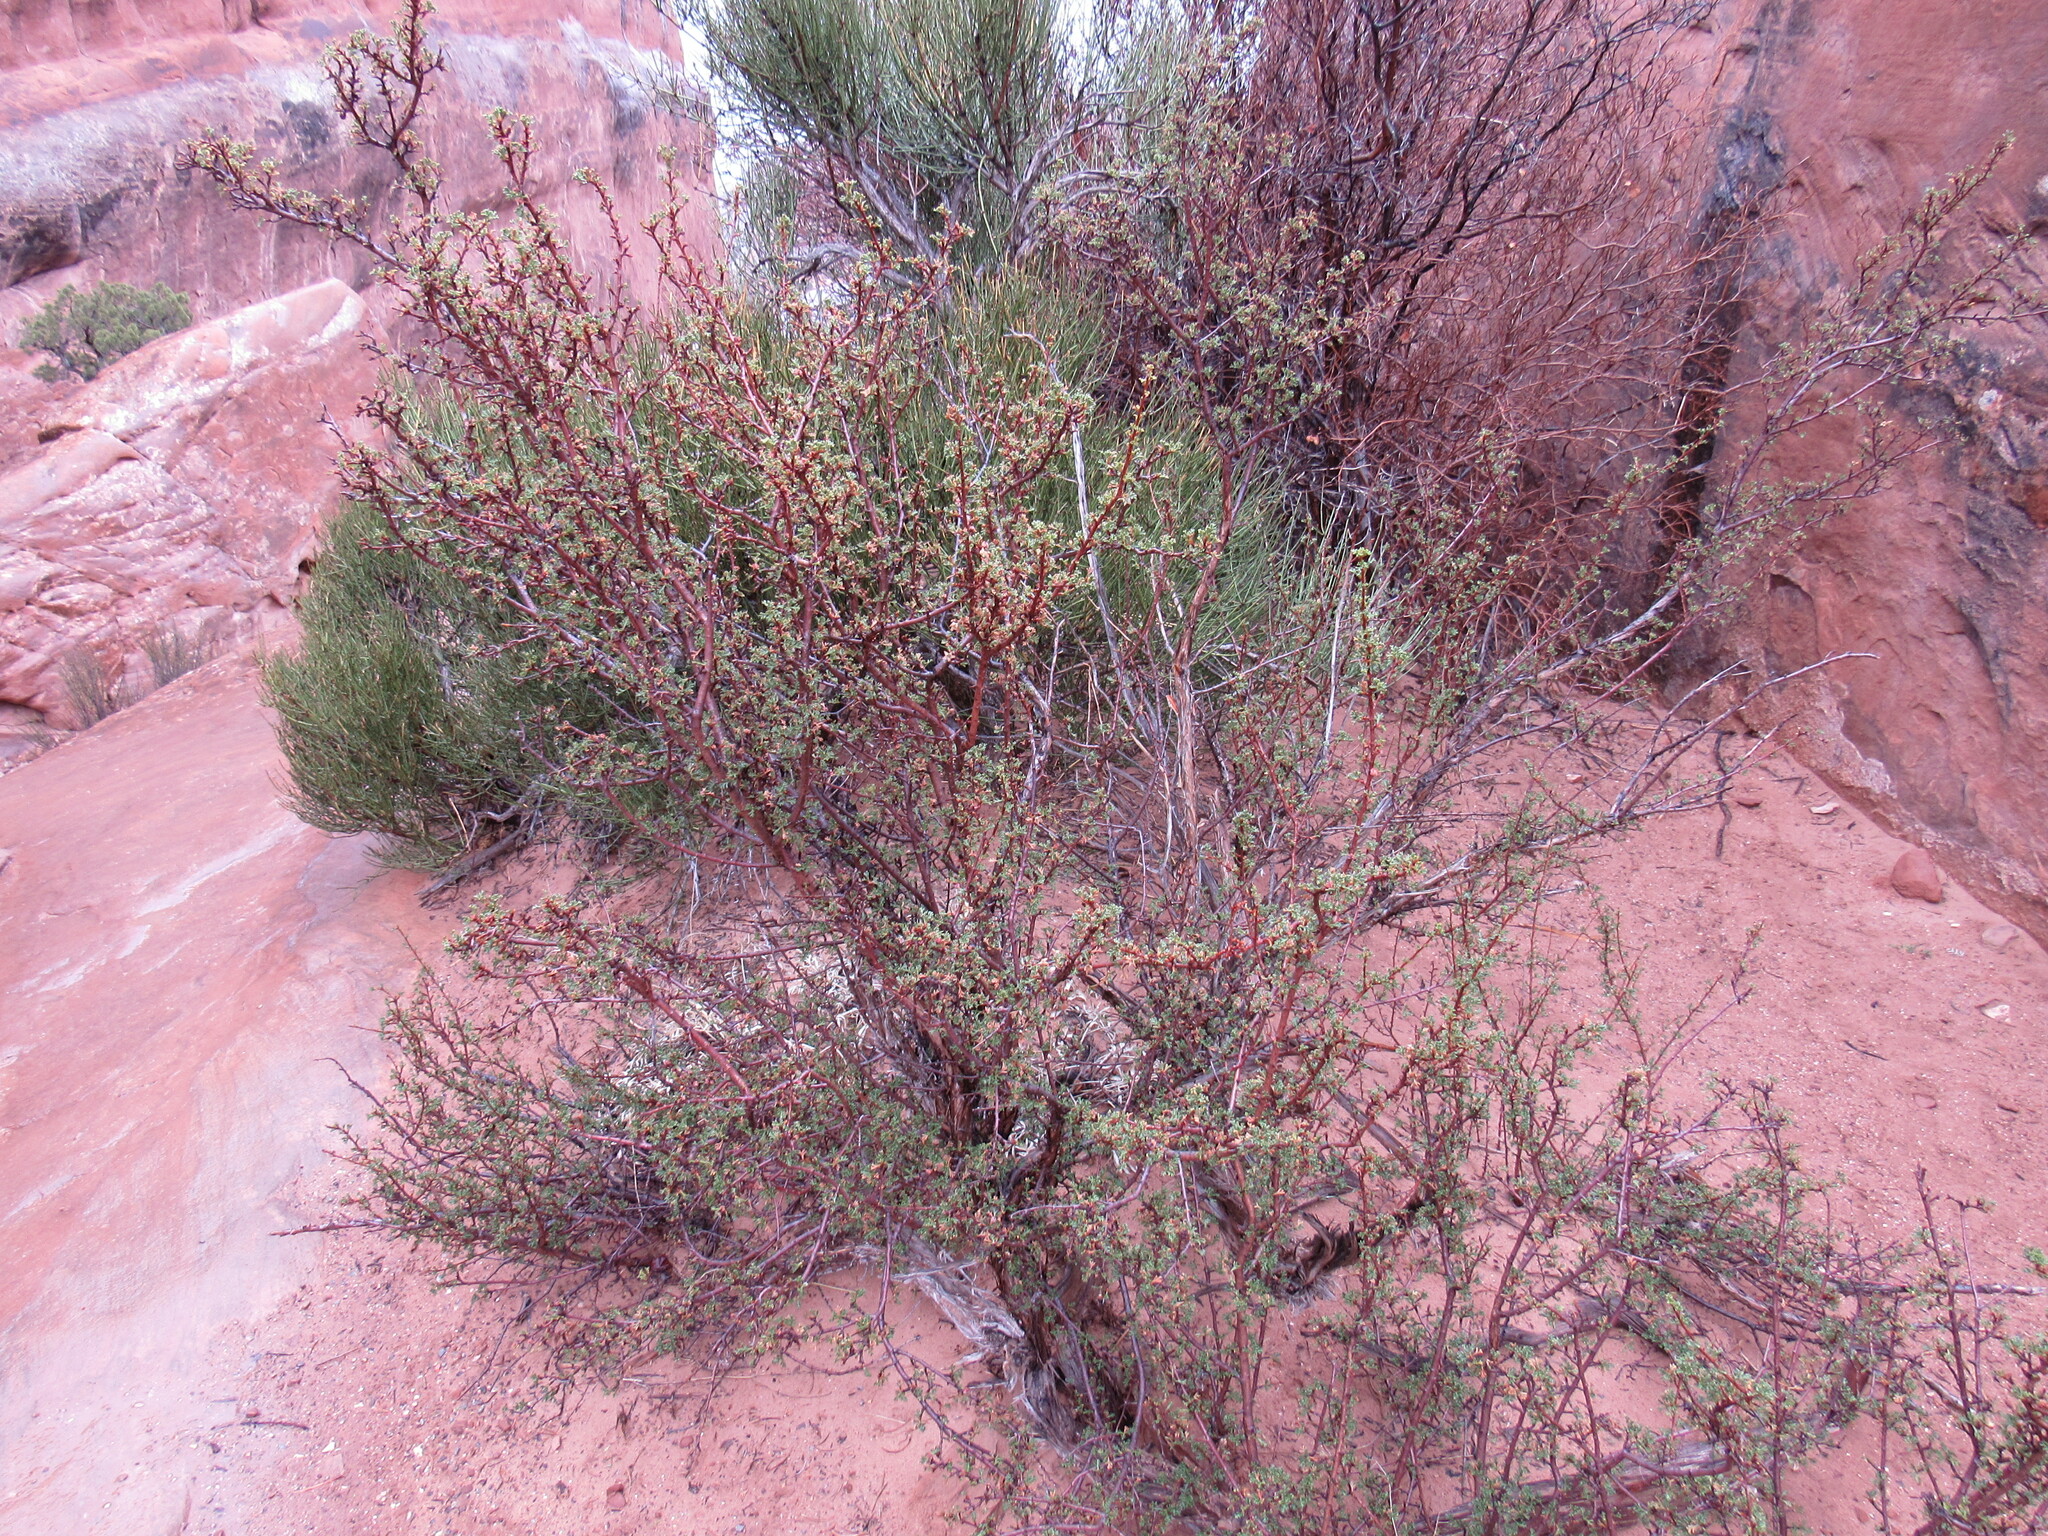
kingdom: Plantae
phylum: Tracheophyta
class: Magnoliopsida
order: Rosales
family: Rosaceae
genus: Purshia
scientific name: Purshia stansburiana
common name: Stansbury's cliffrose
